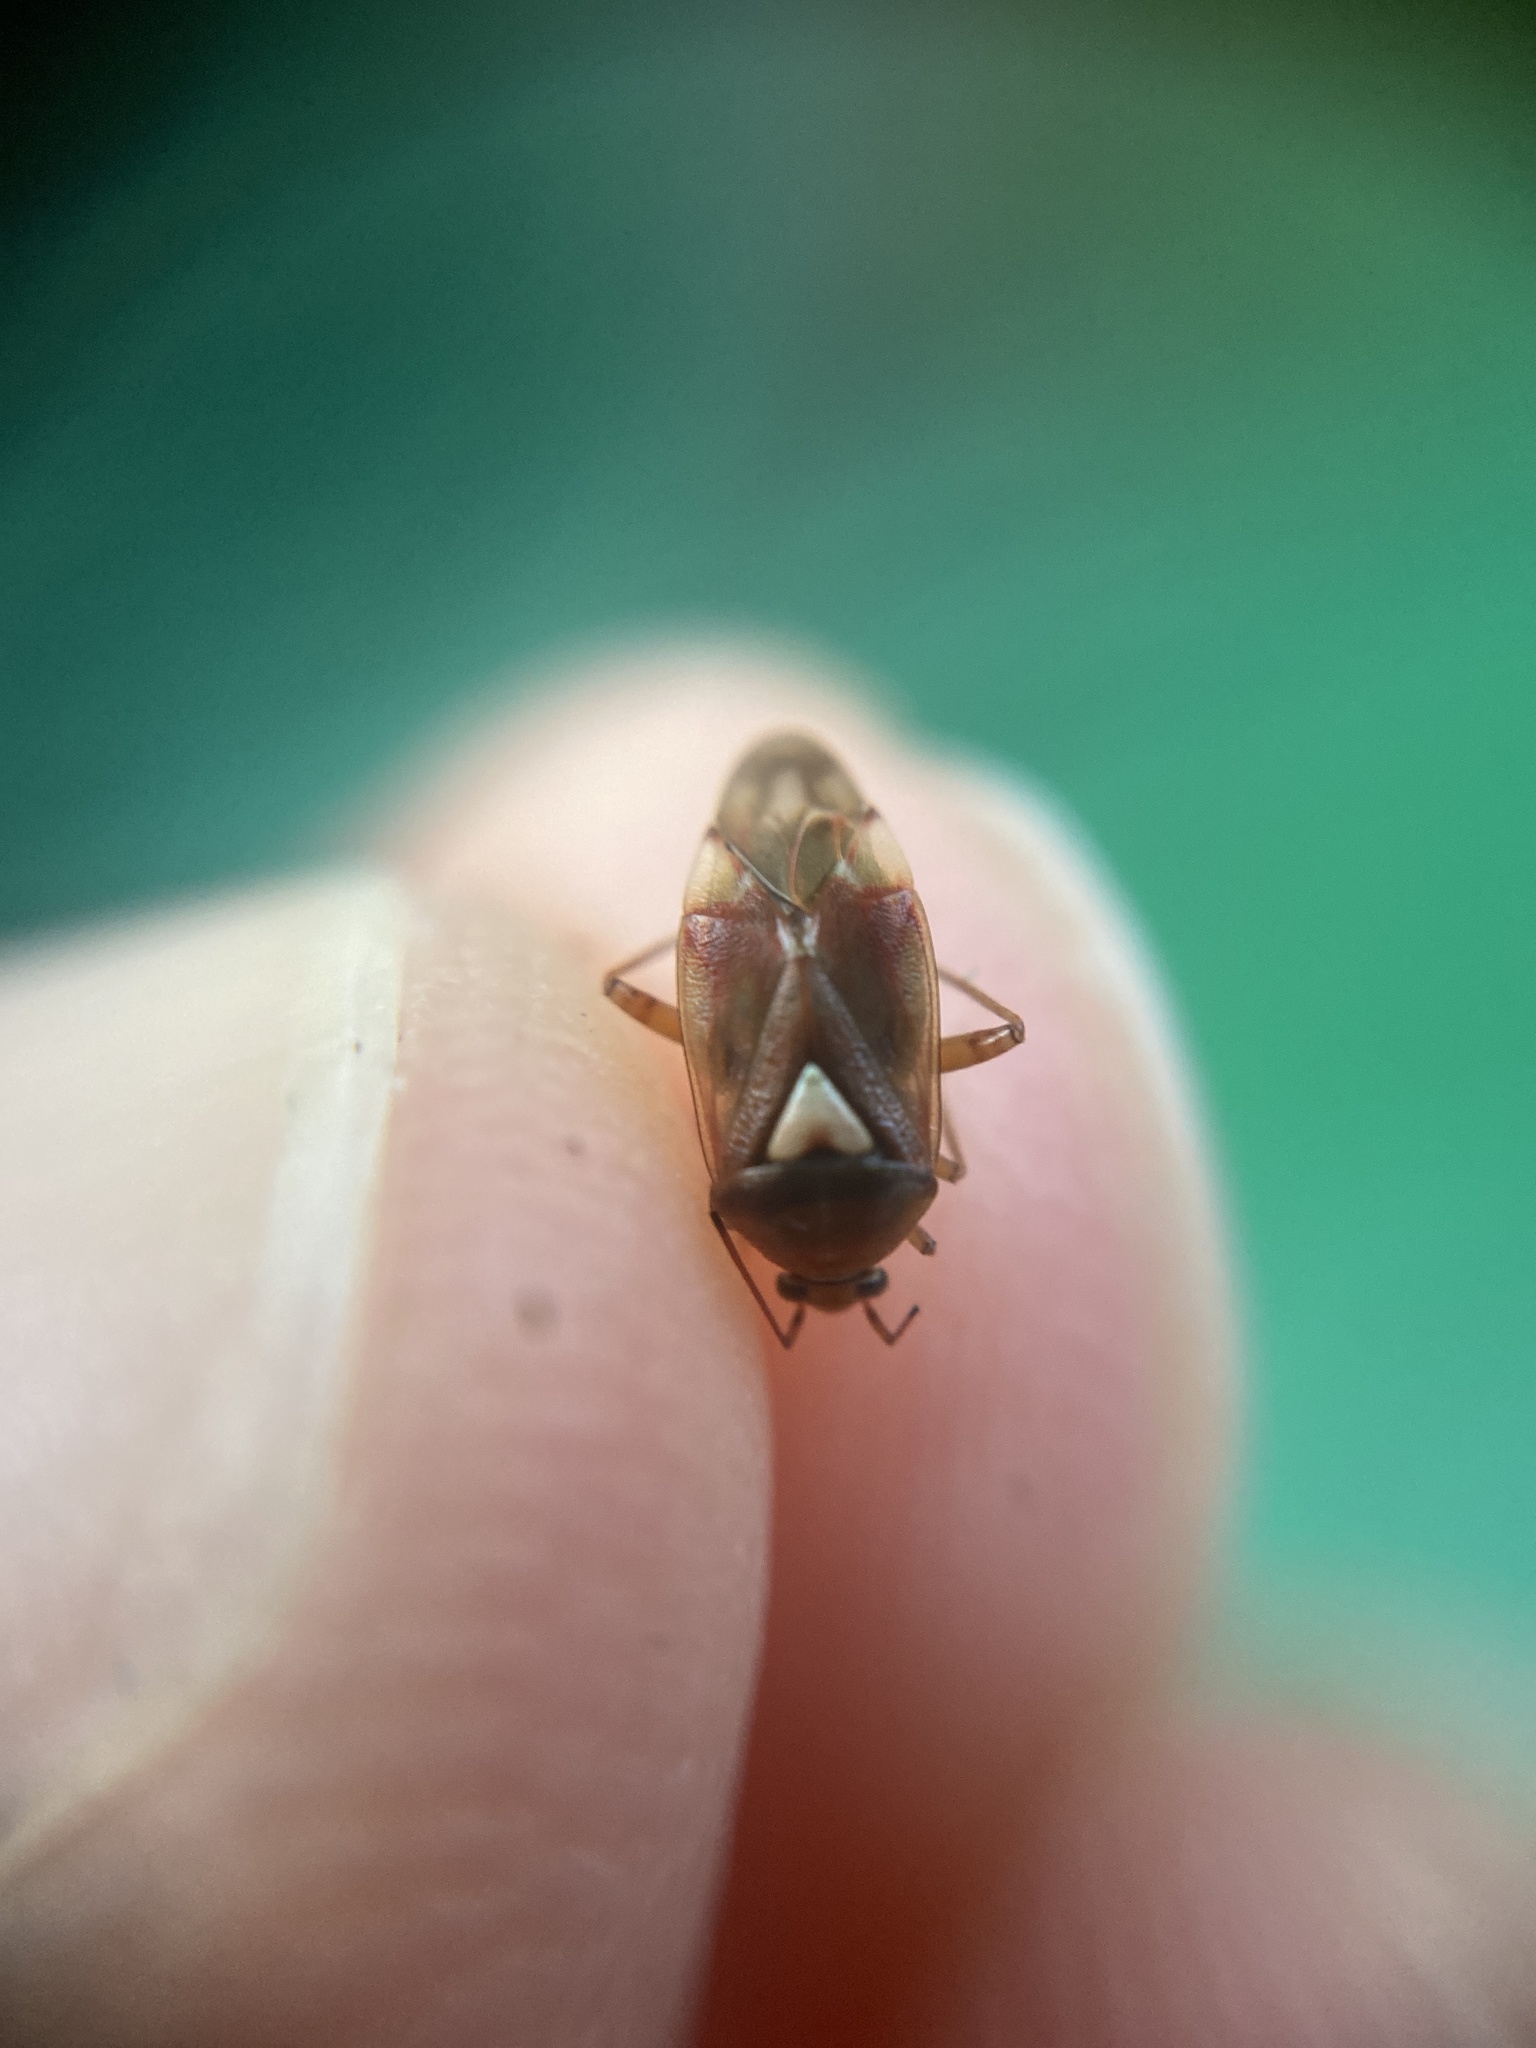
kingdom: Animalia
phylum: Arthropoda
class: Insecta
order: Hemiptera
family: Miridae
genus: Lygus
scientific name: Lygus pratensis
